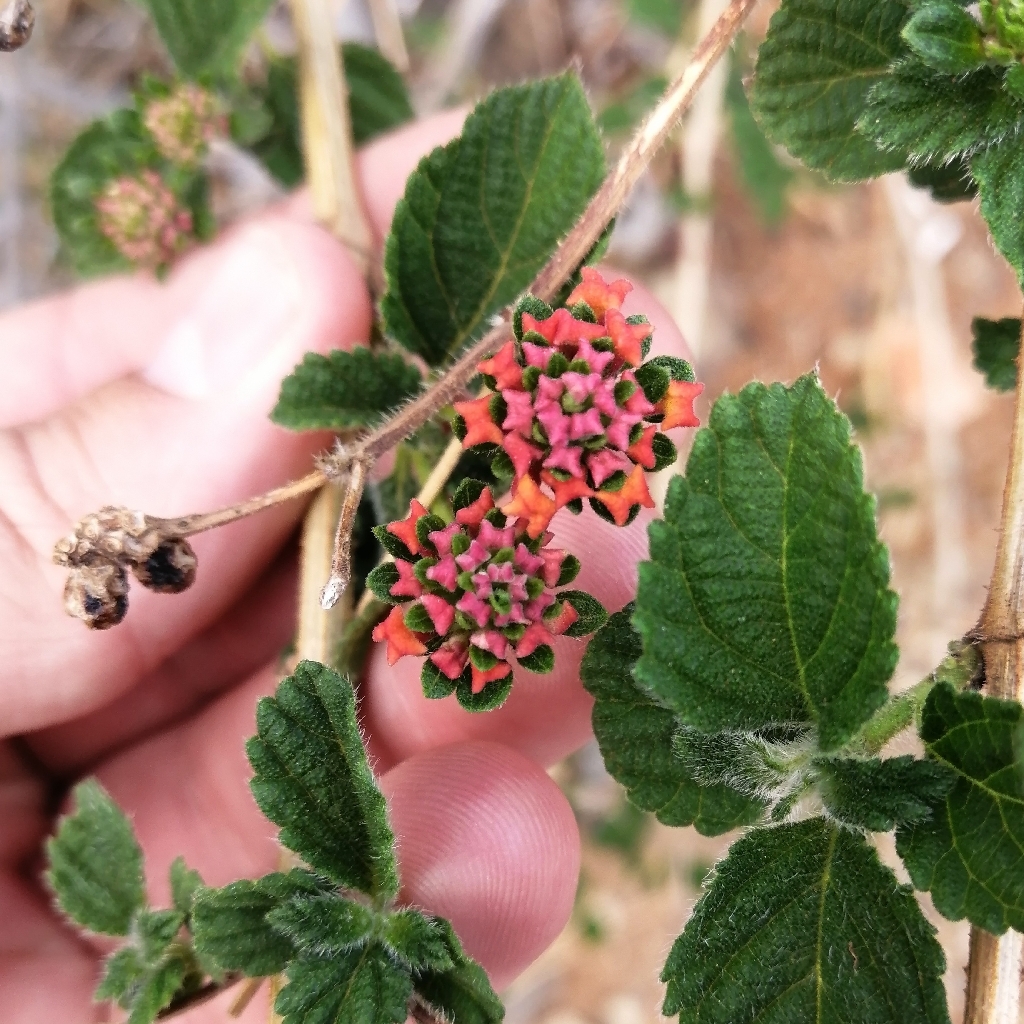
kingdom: Plantae
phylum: Tracheophyta
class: Magnoliopsida
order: Lamiales
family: Verbenaceae
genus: Lantana
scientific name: Lantana camara
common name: Lantana
